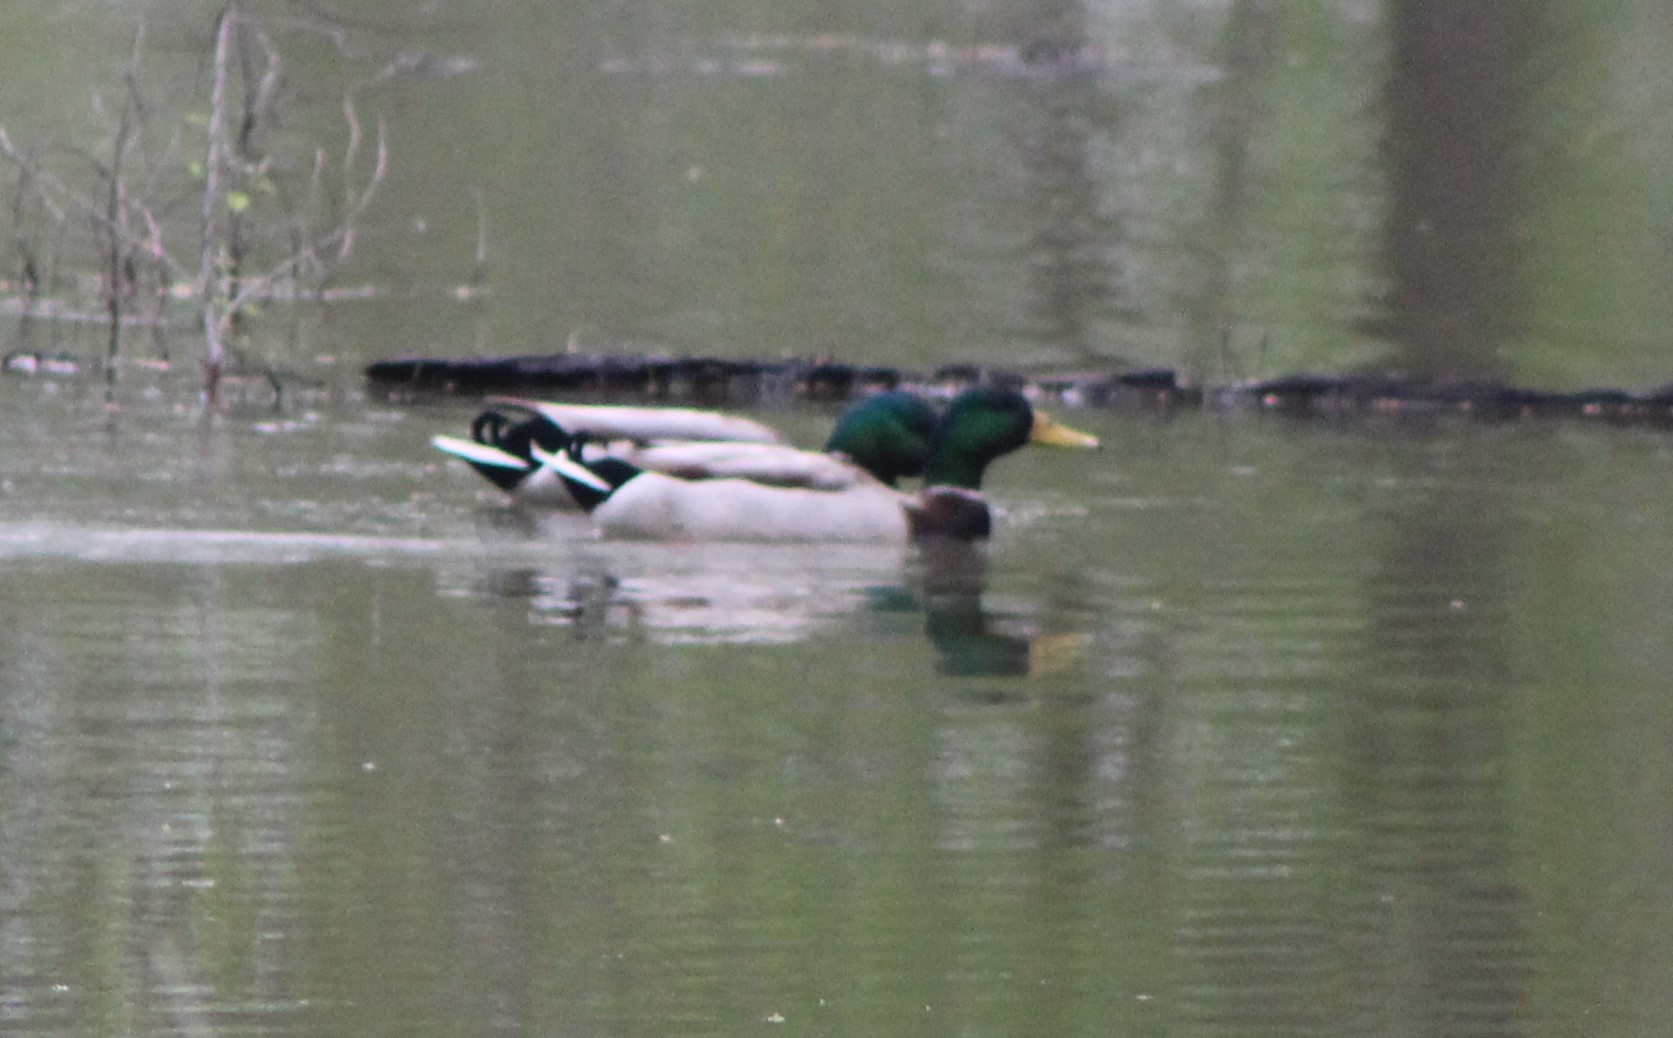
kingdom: Animalia
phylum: Chordata
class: Aves
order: Anseriformes
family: Anatidae
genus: Anas
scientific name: Anas platyrhynchos
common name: Mallard
